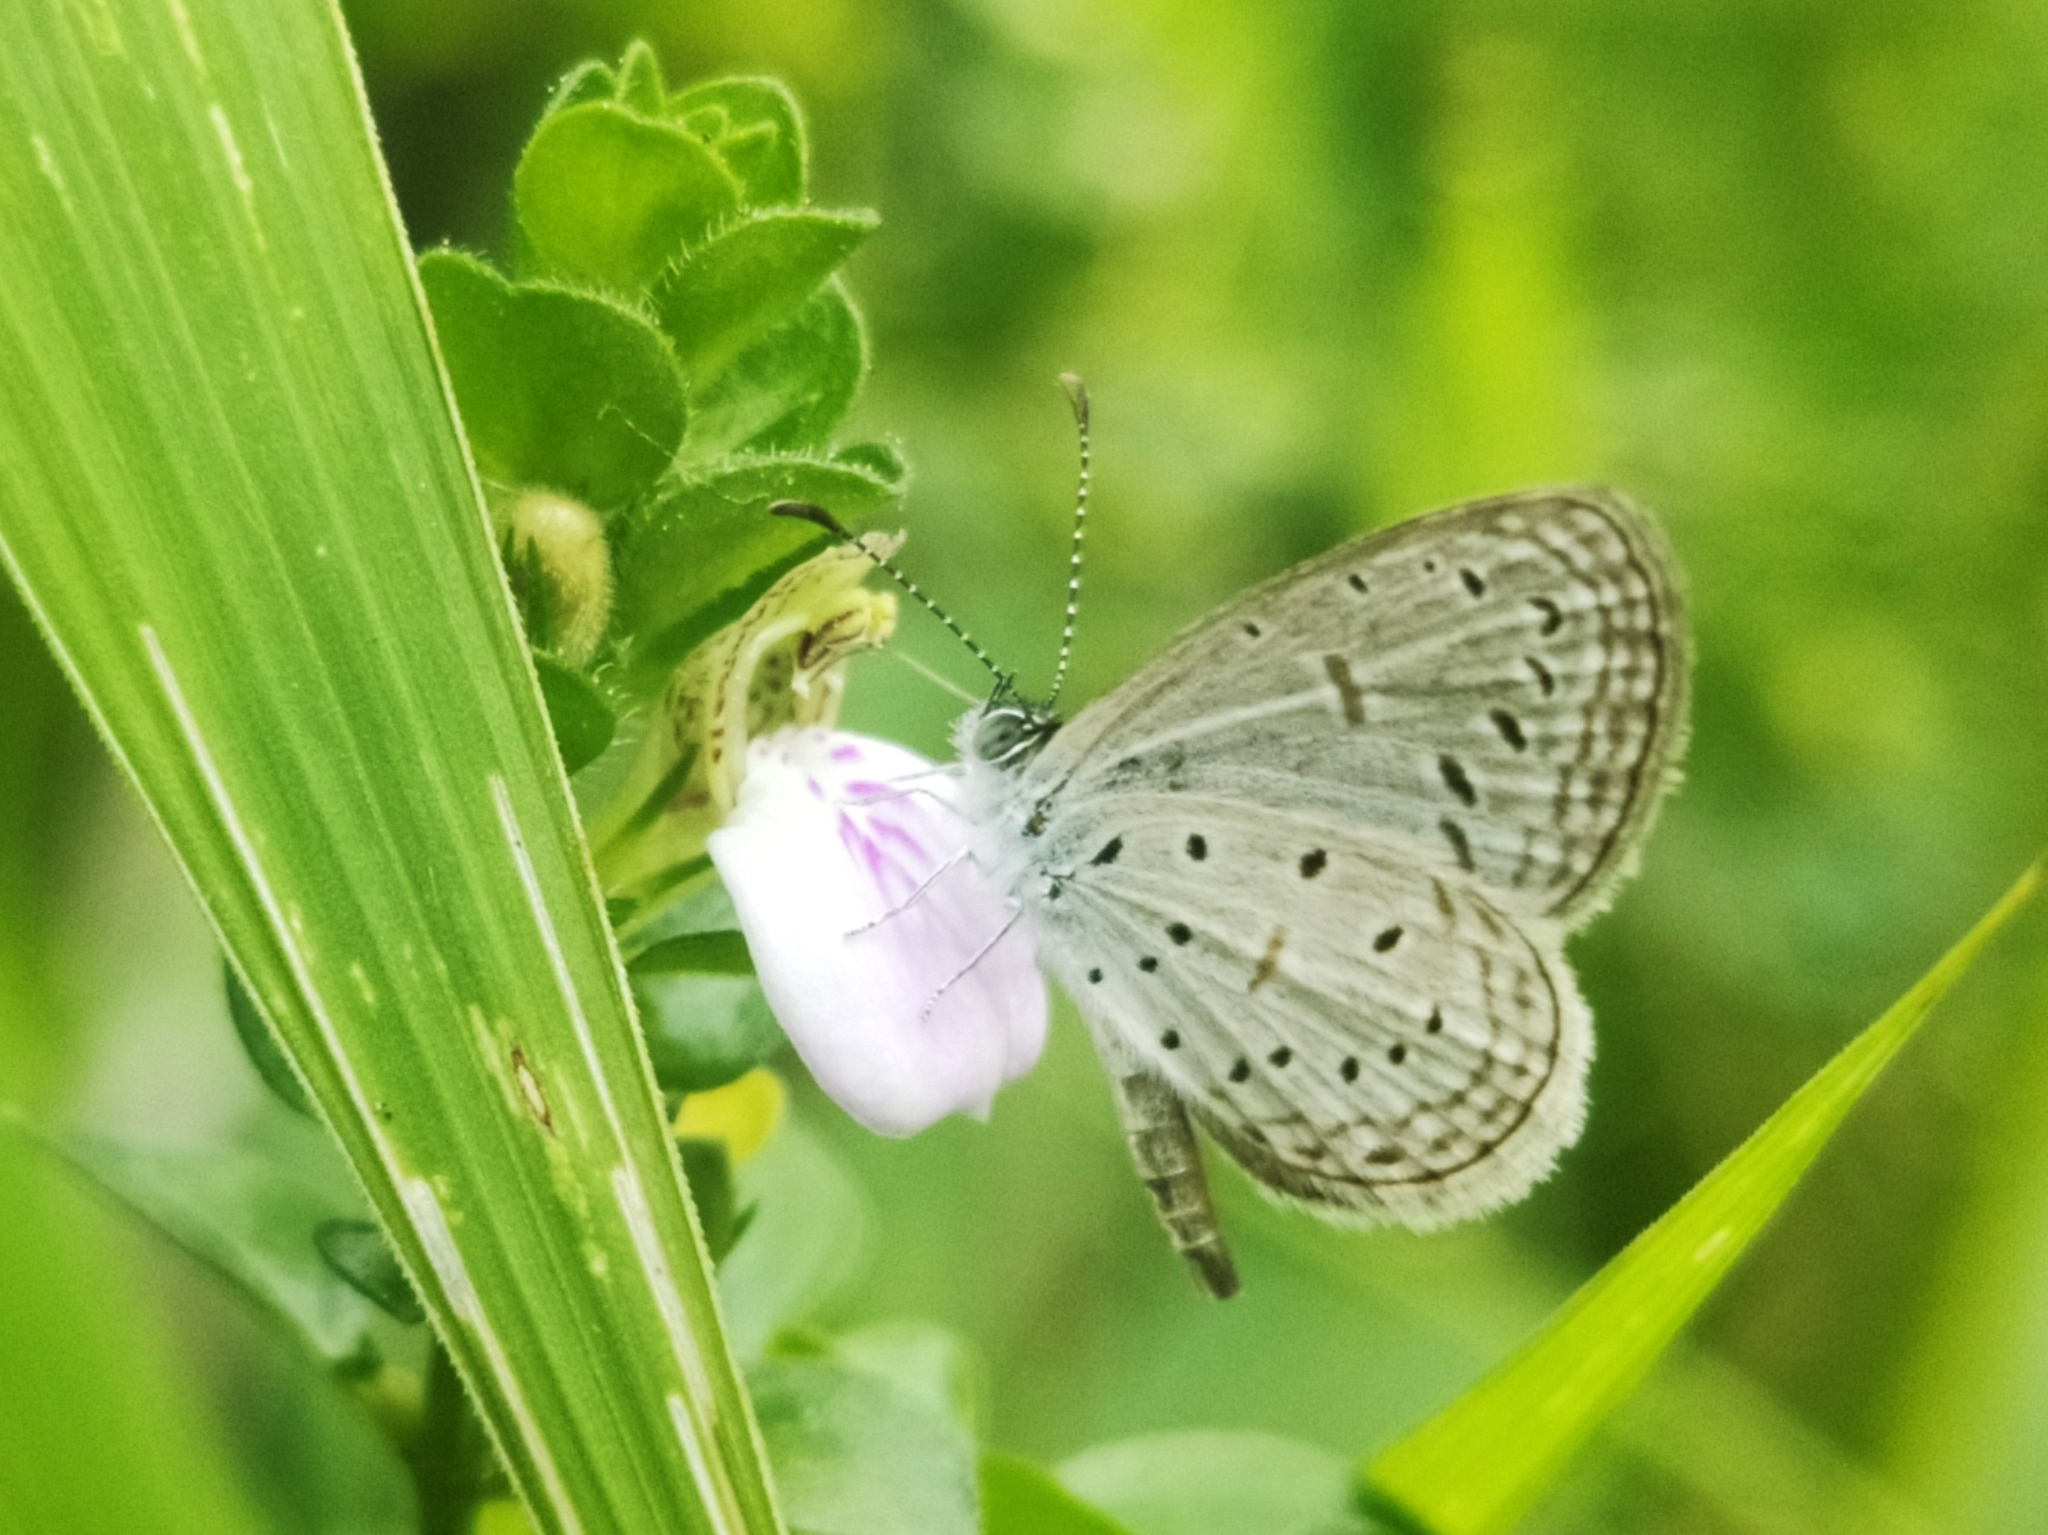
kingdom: Animalia
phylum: Arthropoda
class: Insecta
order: Lepidoptera
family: Lycaenidae
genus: Zizula
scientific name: Zizula hylax
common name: Gaika blue
